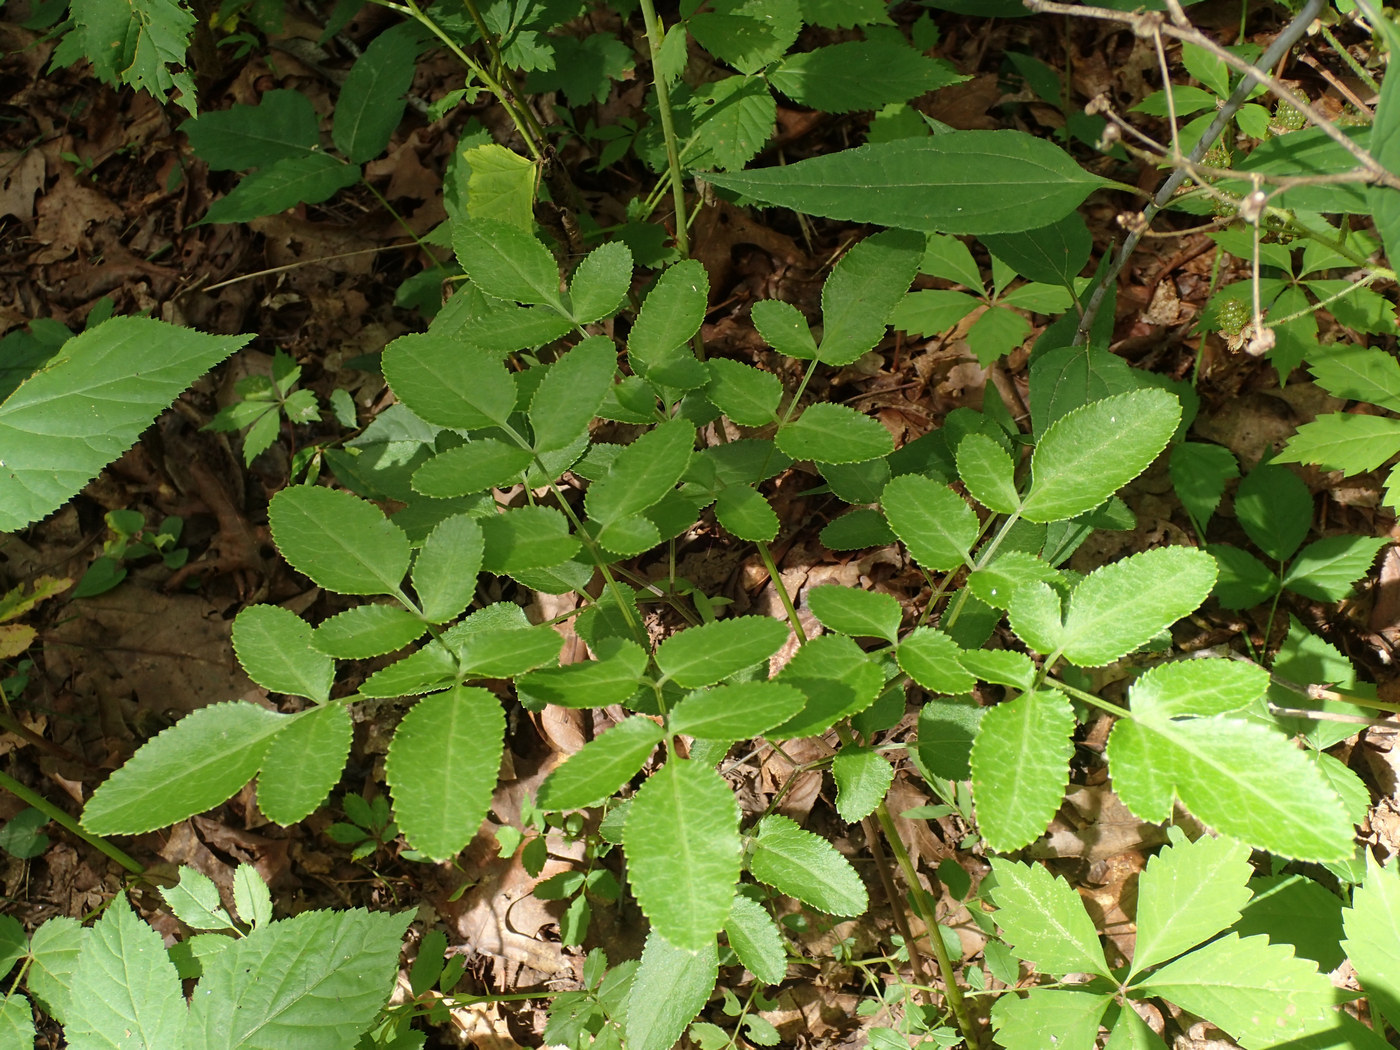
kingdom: Plantae
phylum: Tracheophyta
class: Magnoliopsida
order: Apiales
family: Apiaceae
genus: Angelica
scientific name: Angelica venenosa
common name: Hairy angelica
